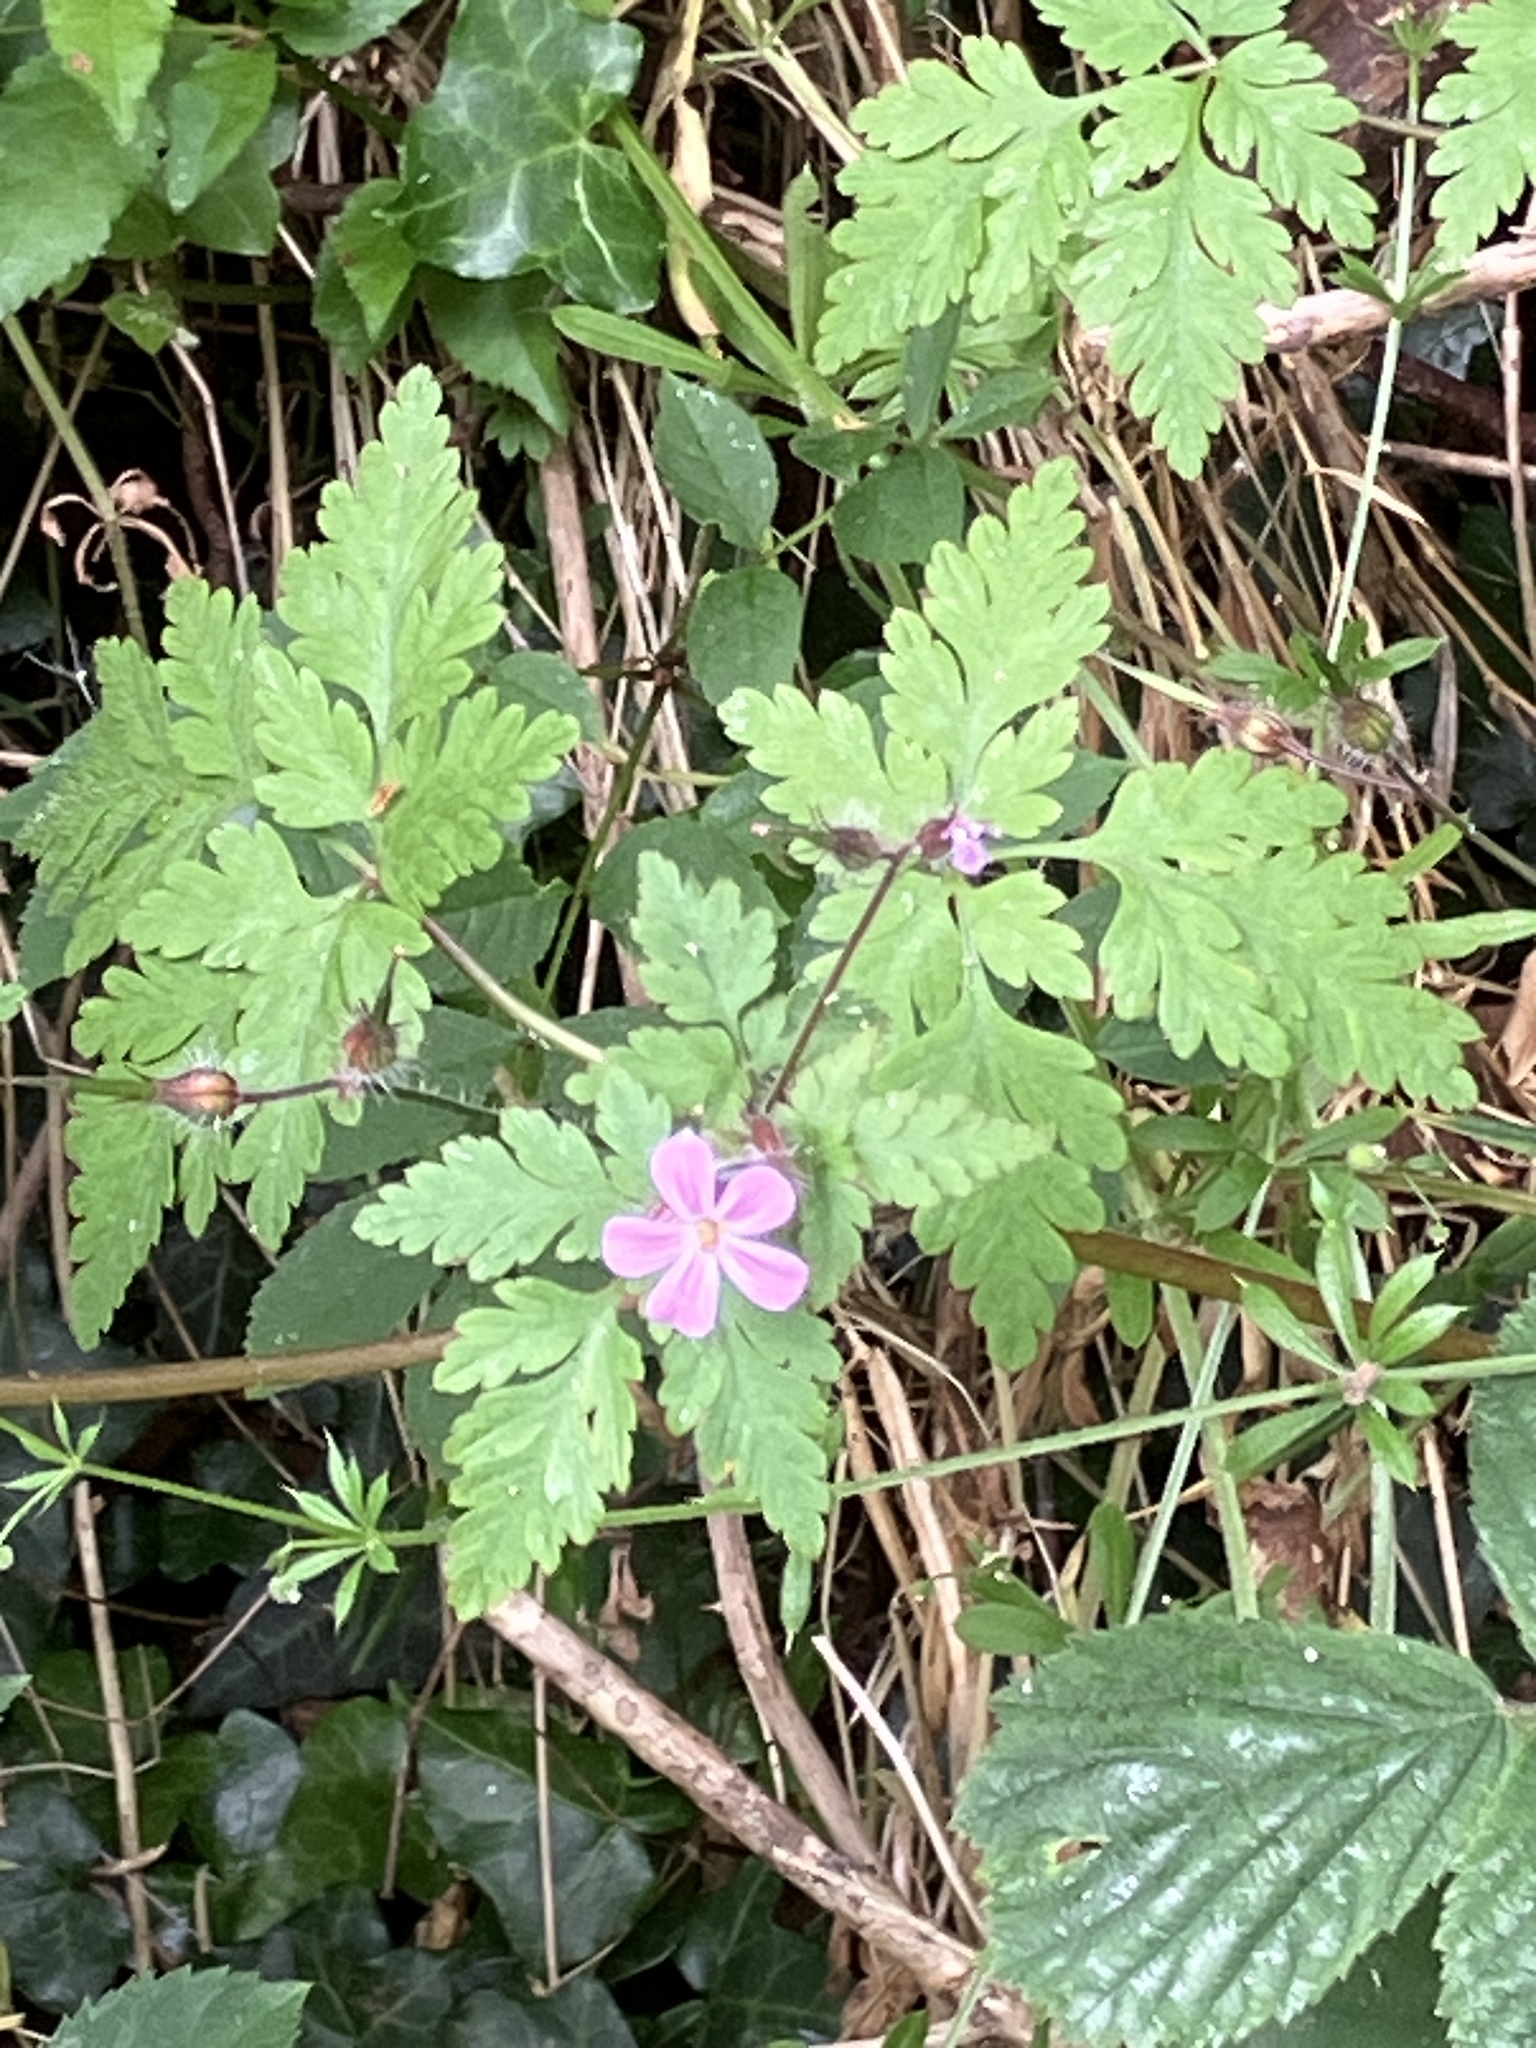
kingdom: Plantae
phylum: Tracheophyta
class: Magnoliopsida
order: Geraniales
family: Geraniaceae
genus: Geranium
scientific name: Geranium robertianum
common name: Herb-robert
